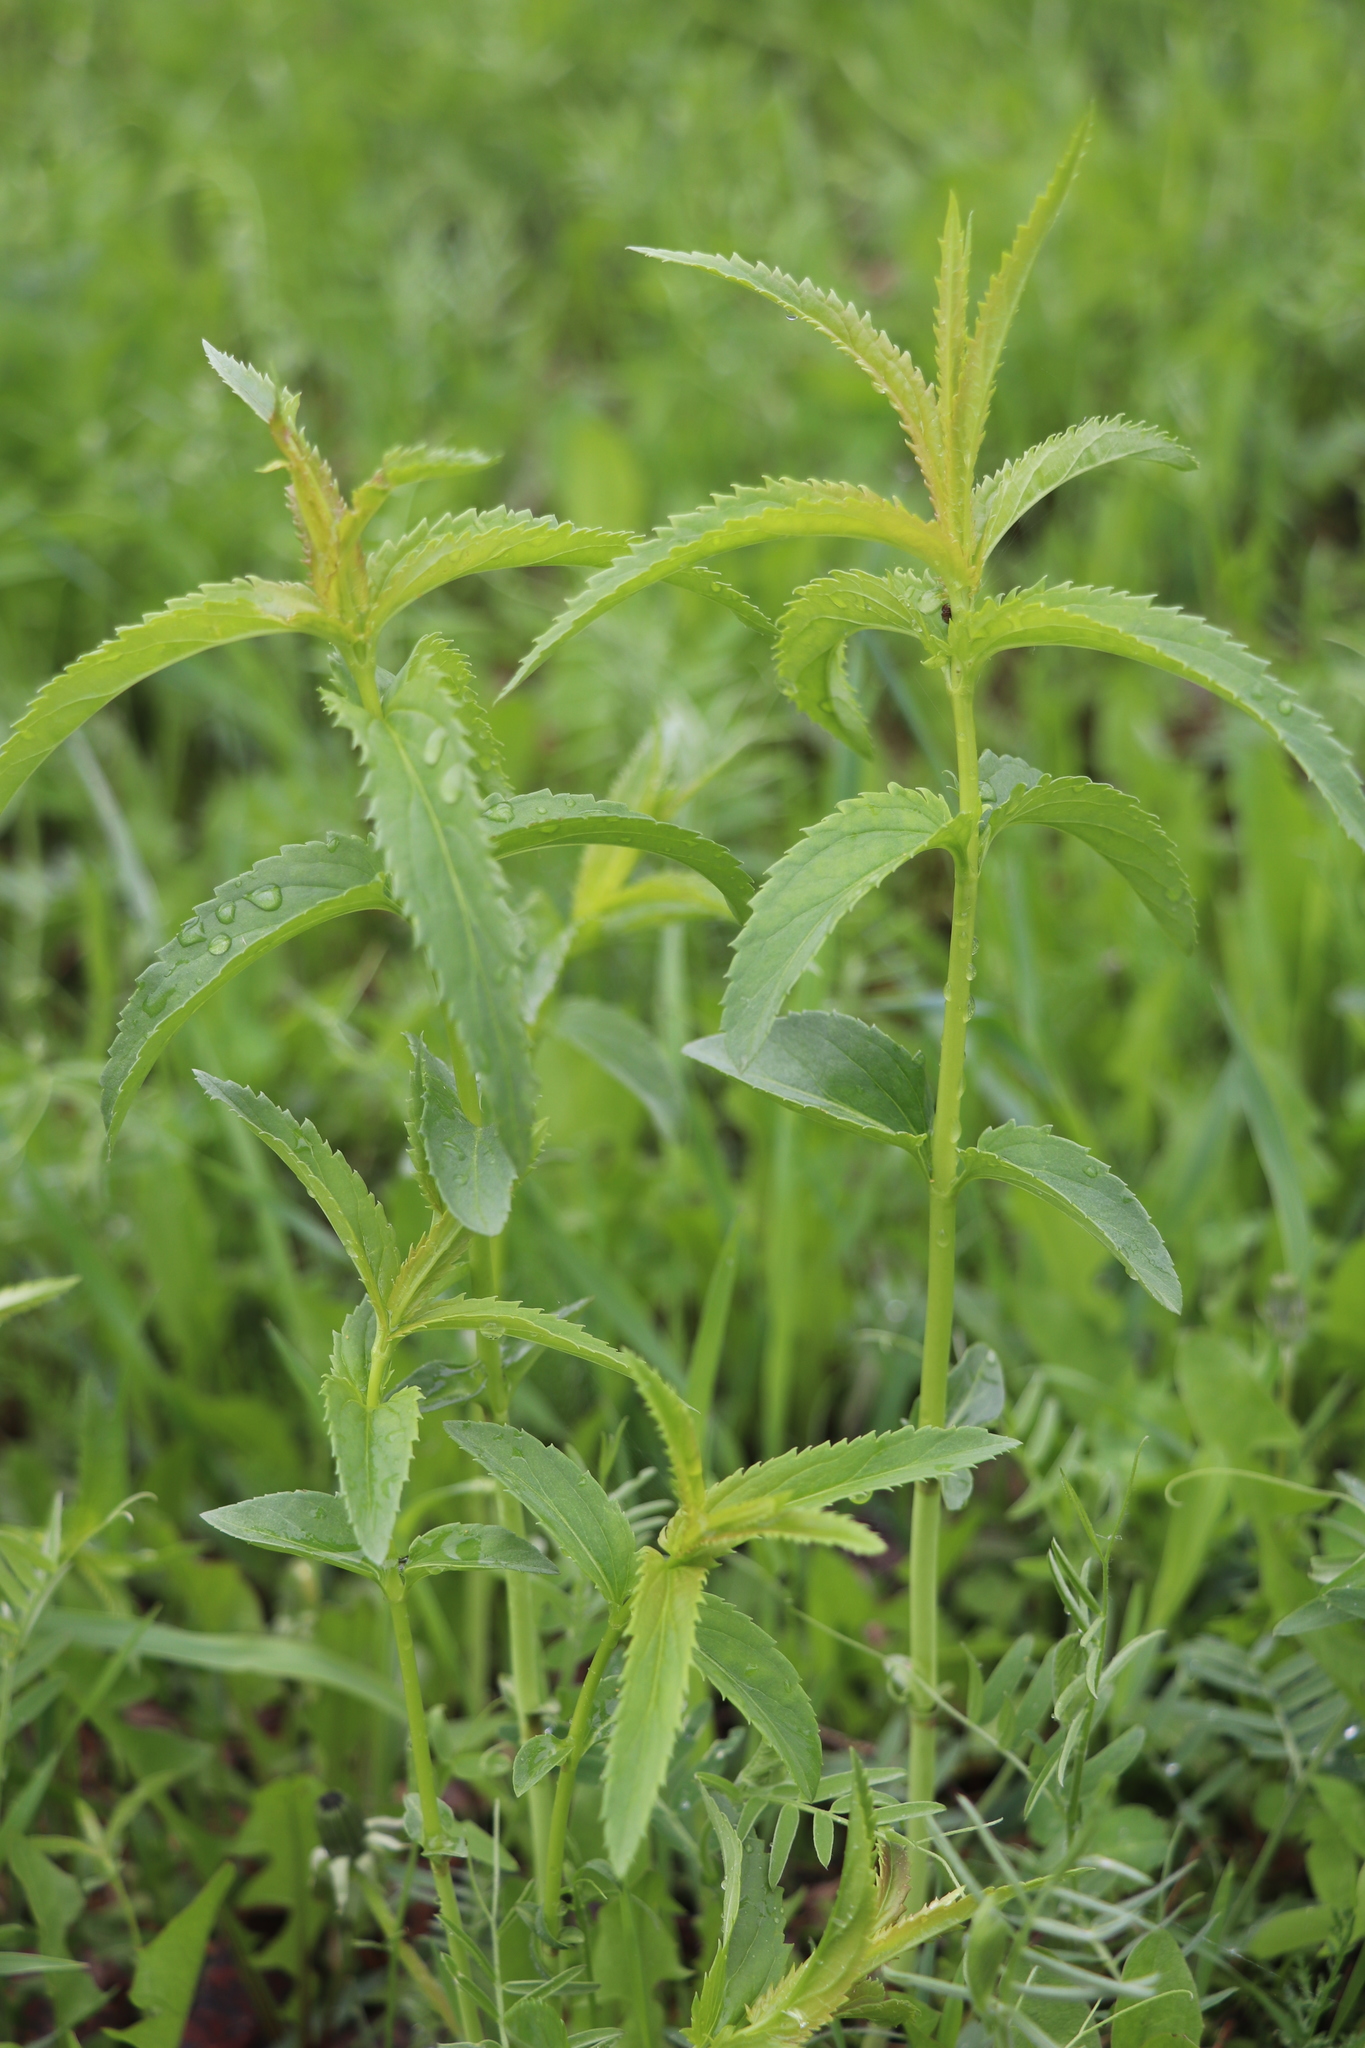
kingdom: Plantae
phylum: Tracheophyta
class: Magnoliopsida
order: Lamiales
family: Plantaginaceae
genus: Veronica
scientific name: Veronica longifolia
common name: Garden speedwell
